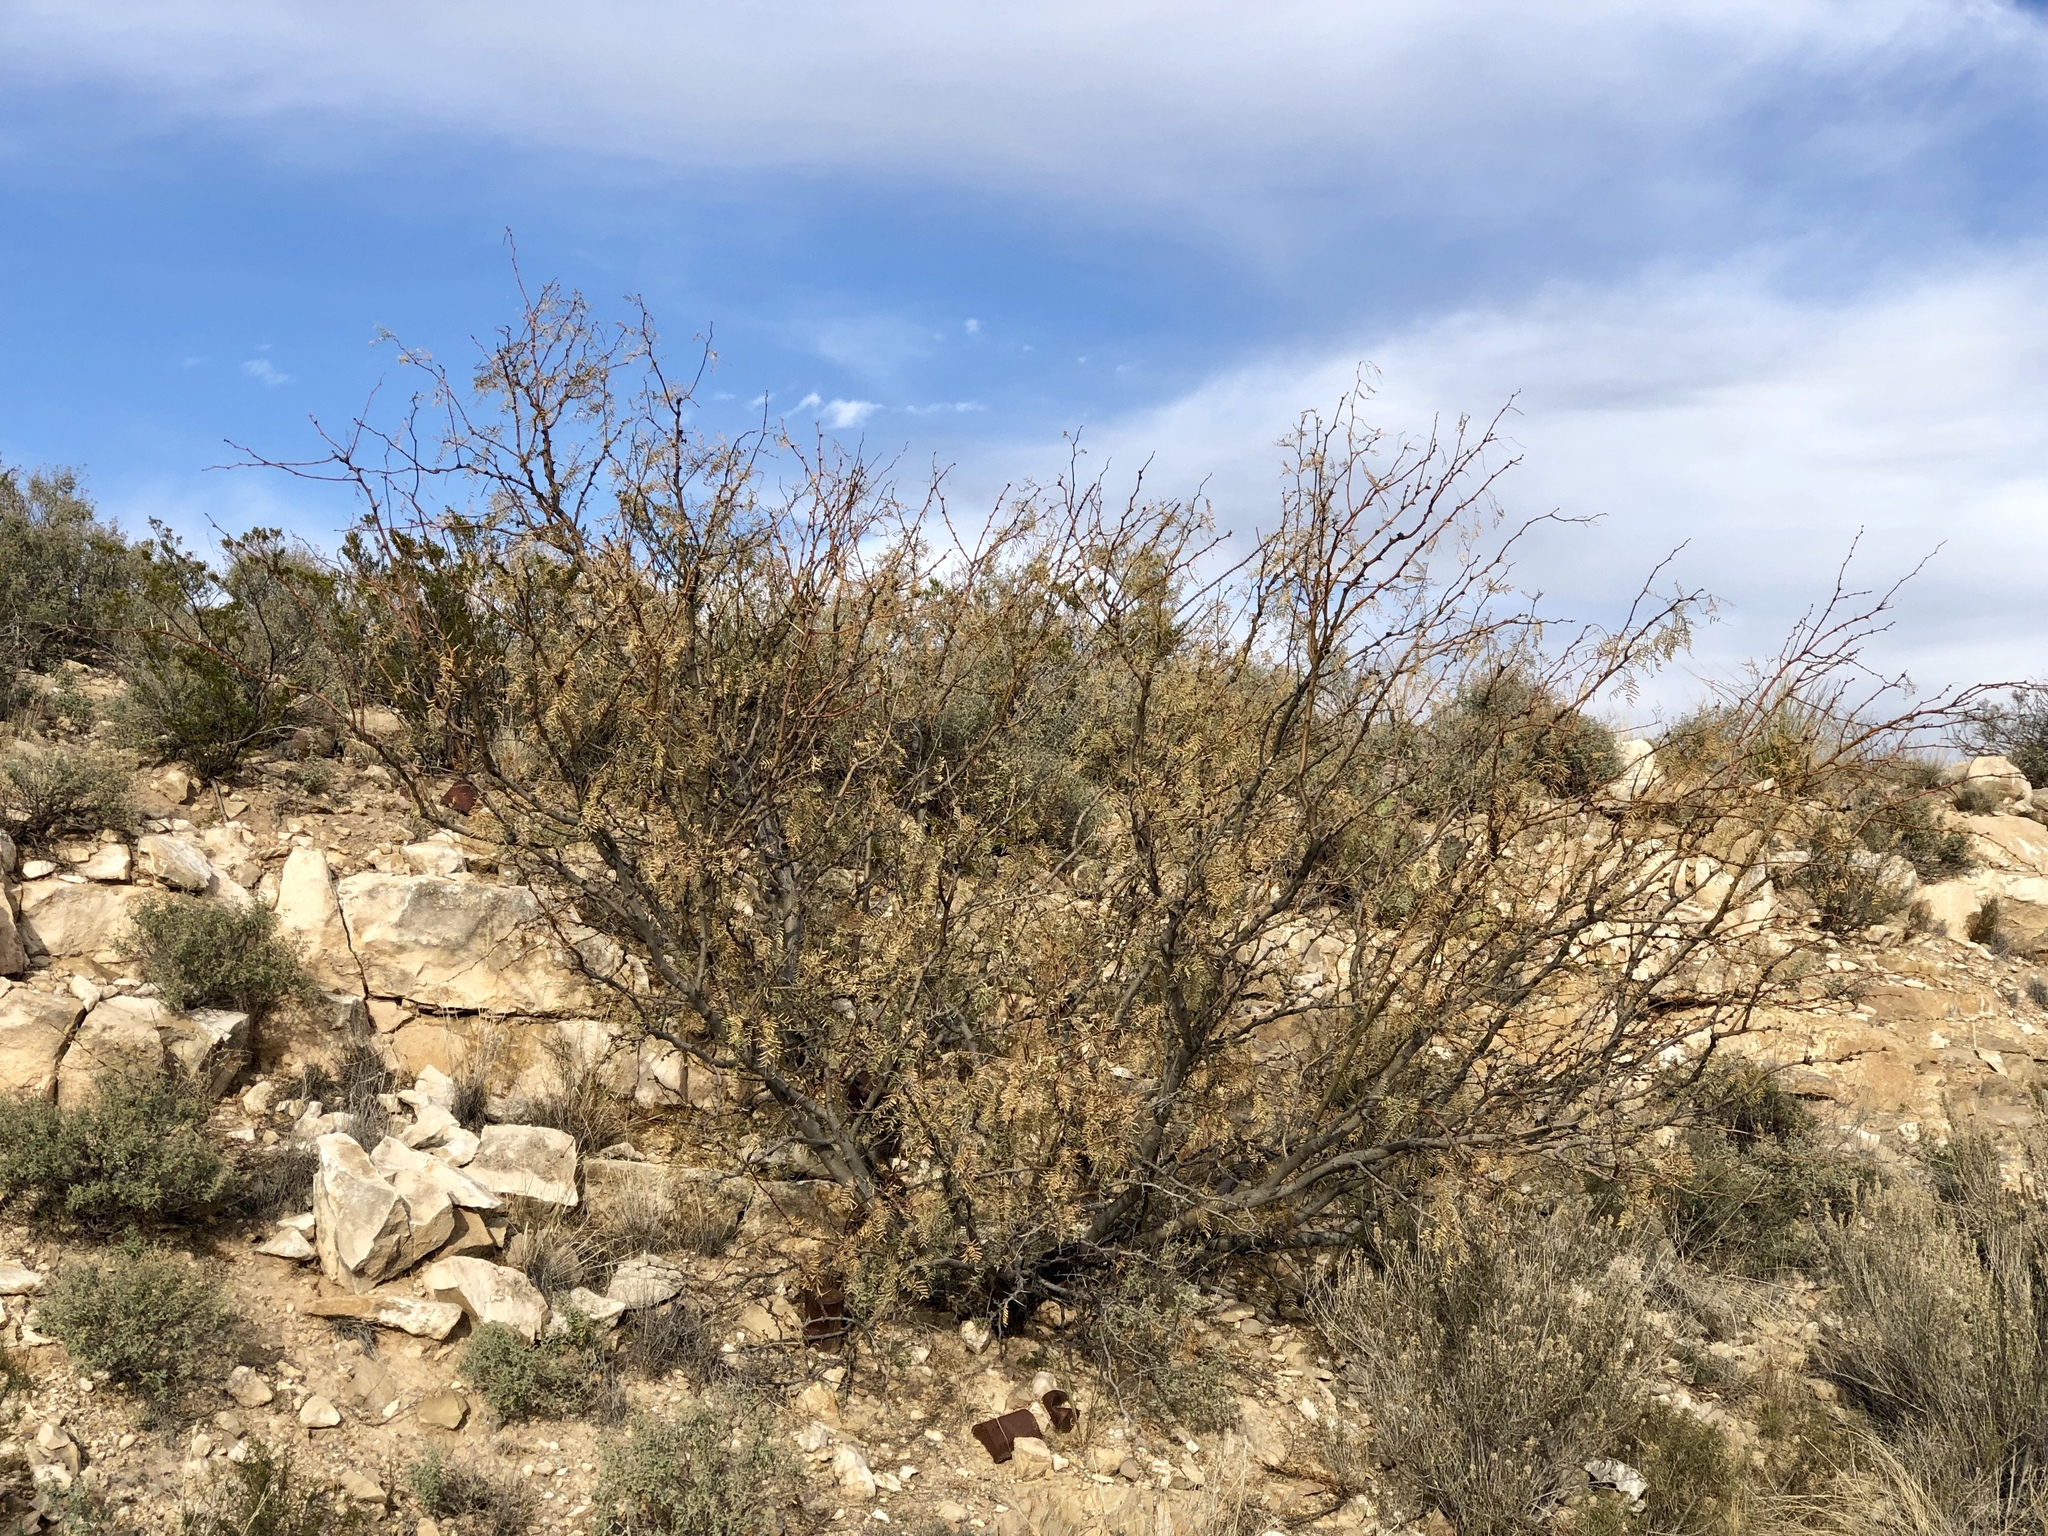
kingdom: Plantae
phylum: Tracheophyta
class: Magnoliopsida
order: Fabales
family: Fabaceae
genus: Prosopis
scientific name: Prosopis glandulosa
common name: Honey mesquite
